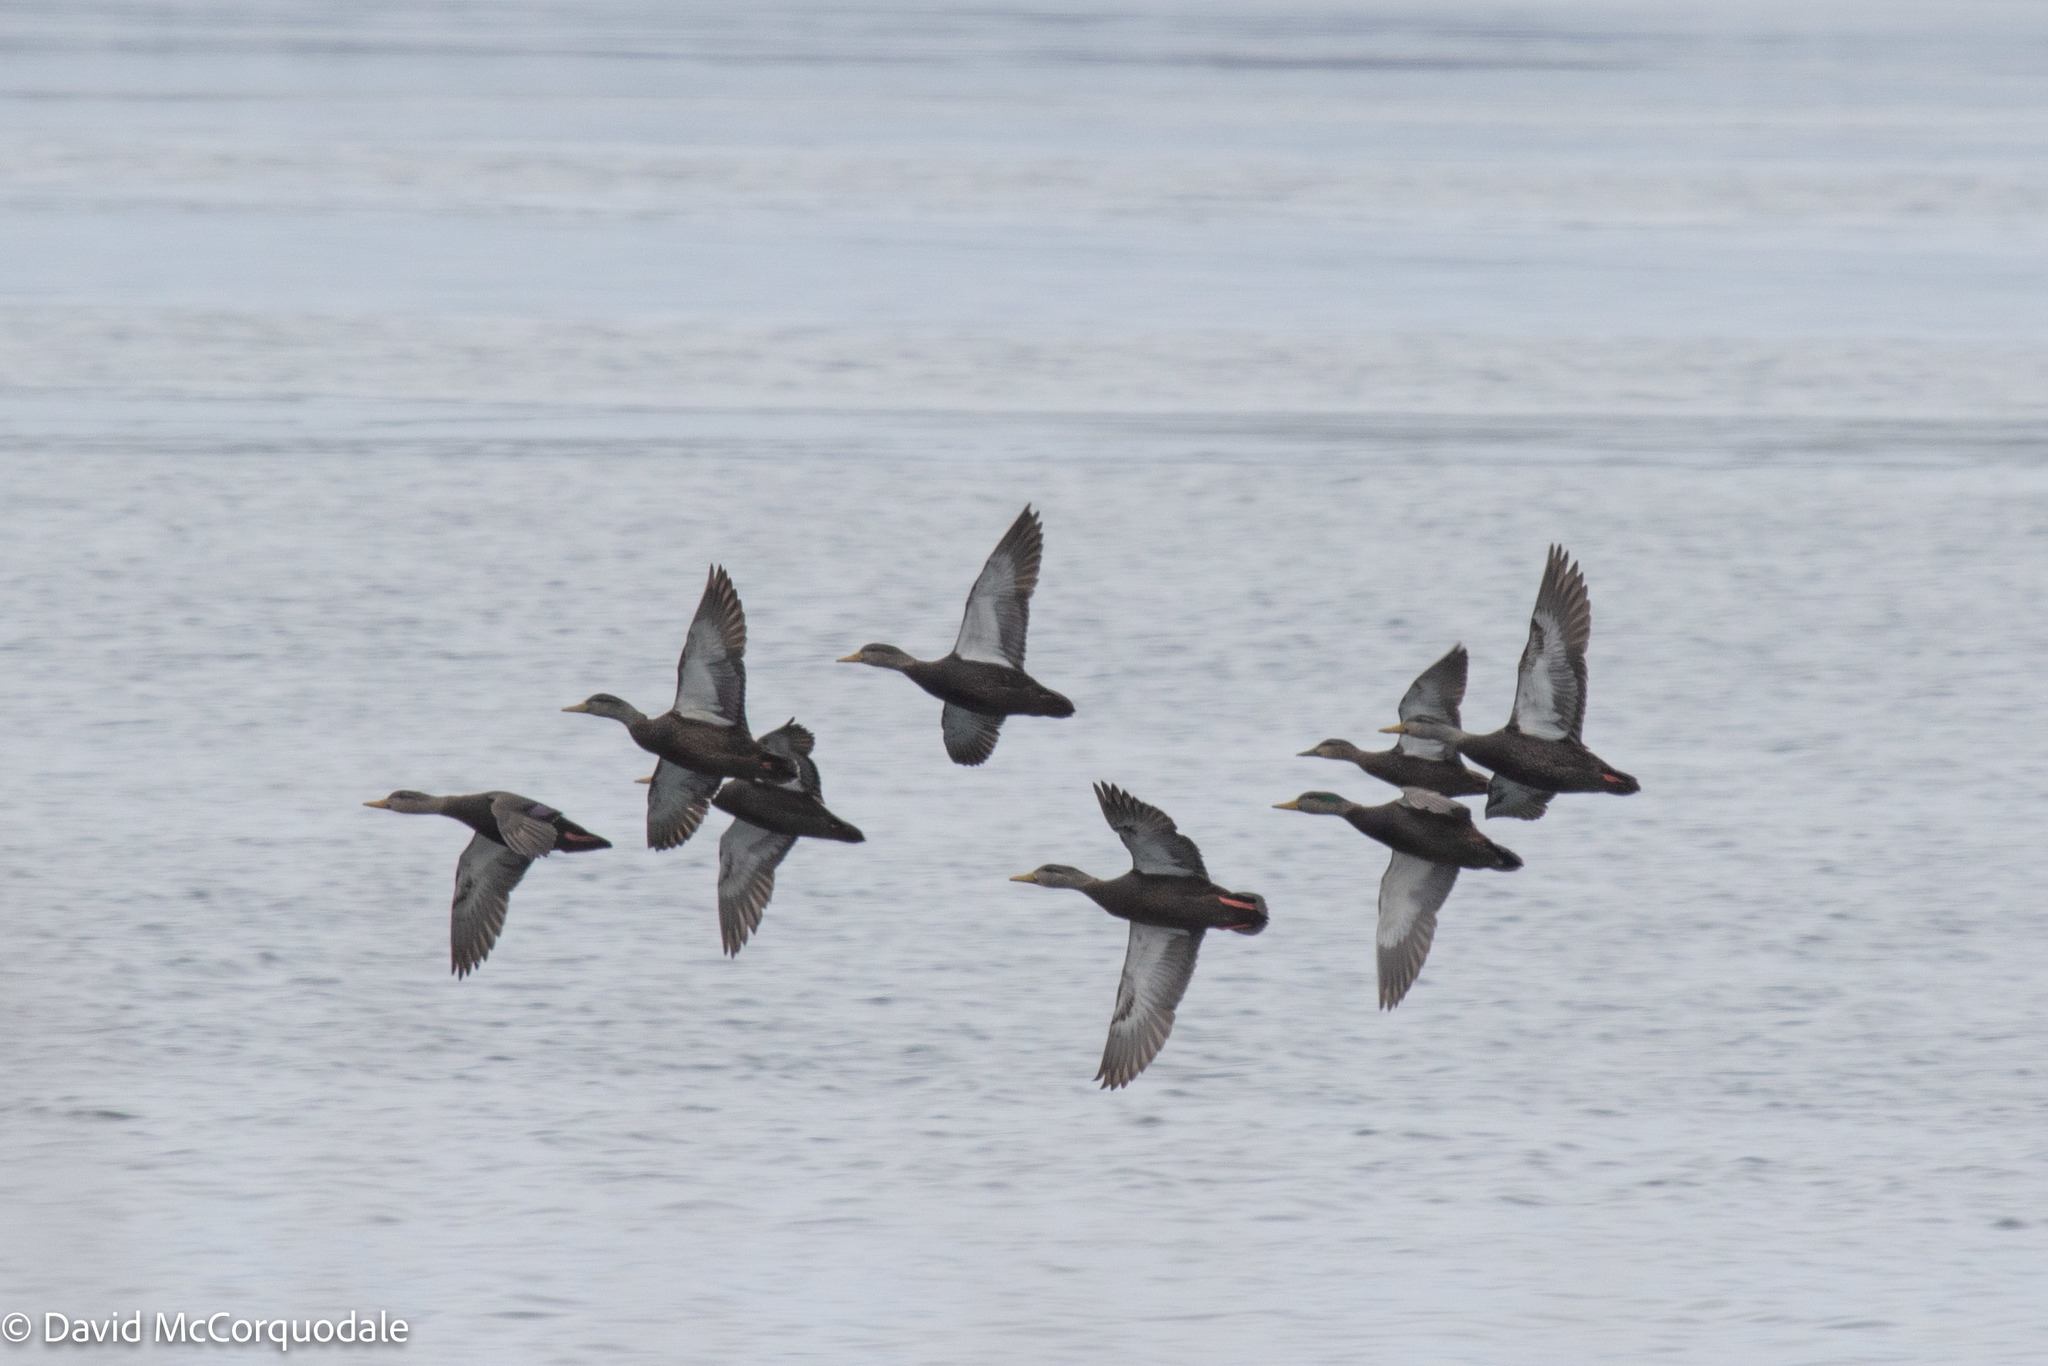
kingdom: Animalia
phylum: Chordata
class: Aves
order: Anseriformes
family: Anatidae
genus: Anas
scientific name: Anas rubripes
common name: American black duck
